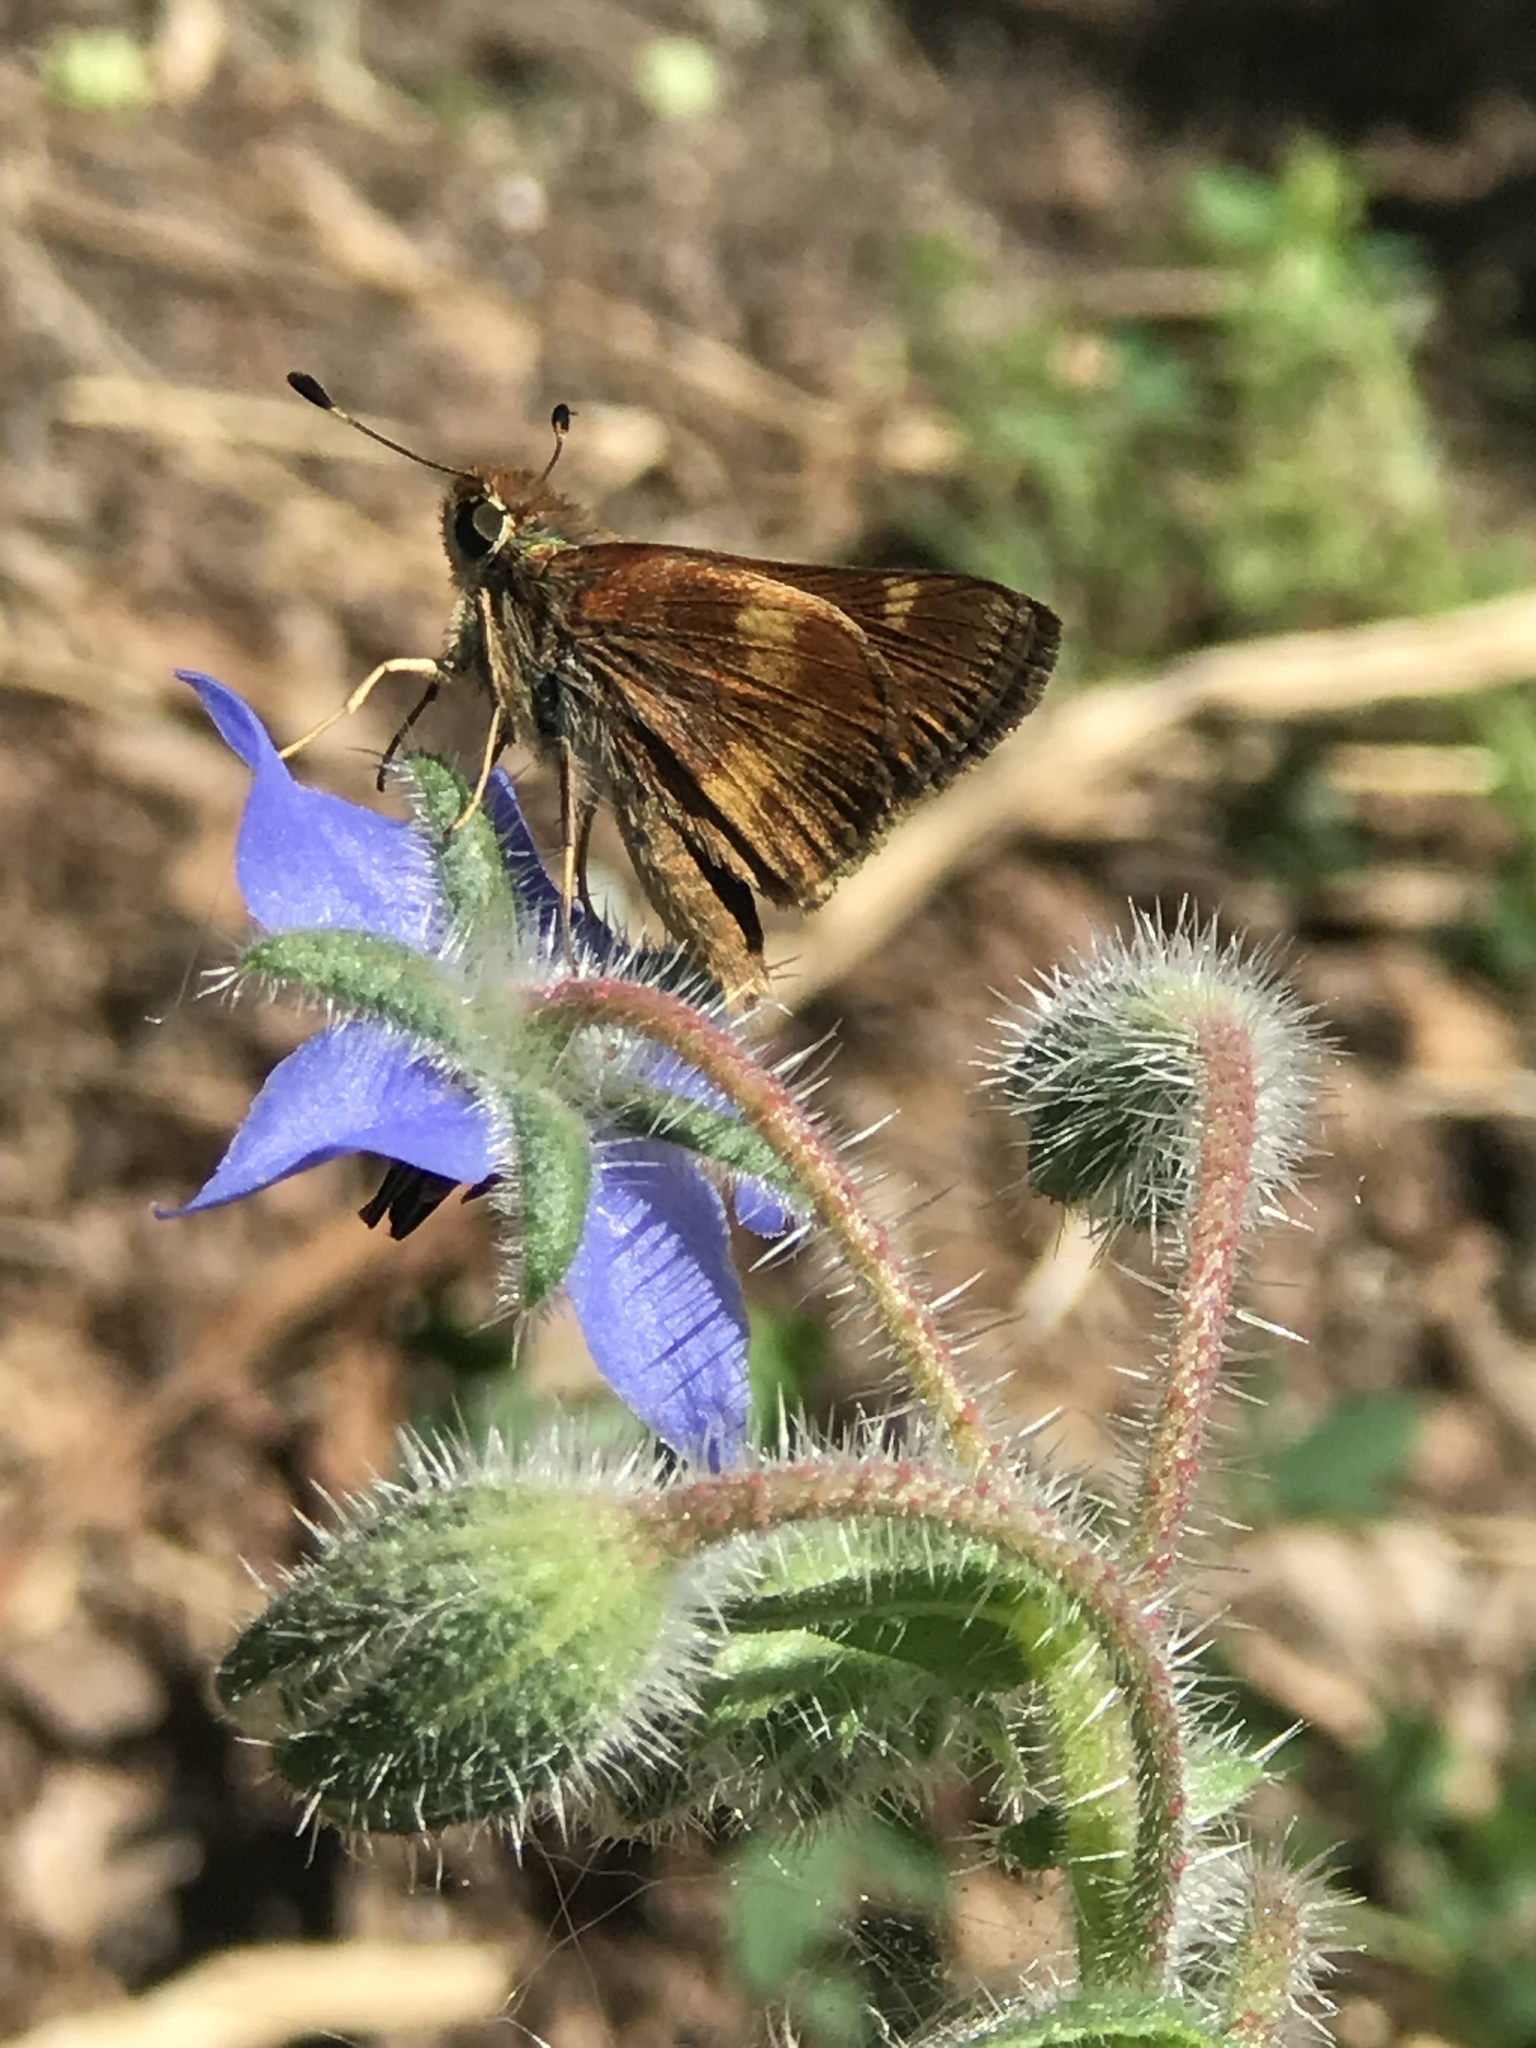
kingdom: Animalia
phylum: Arthropoda
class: Insecta
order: Lepidoptera
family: Hesperiidae
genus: Lon
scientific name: Lon melane
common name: Umber skipper
